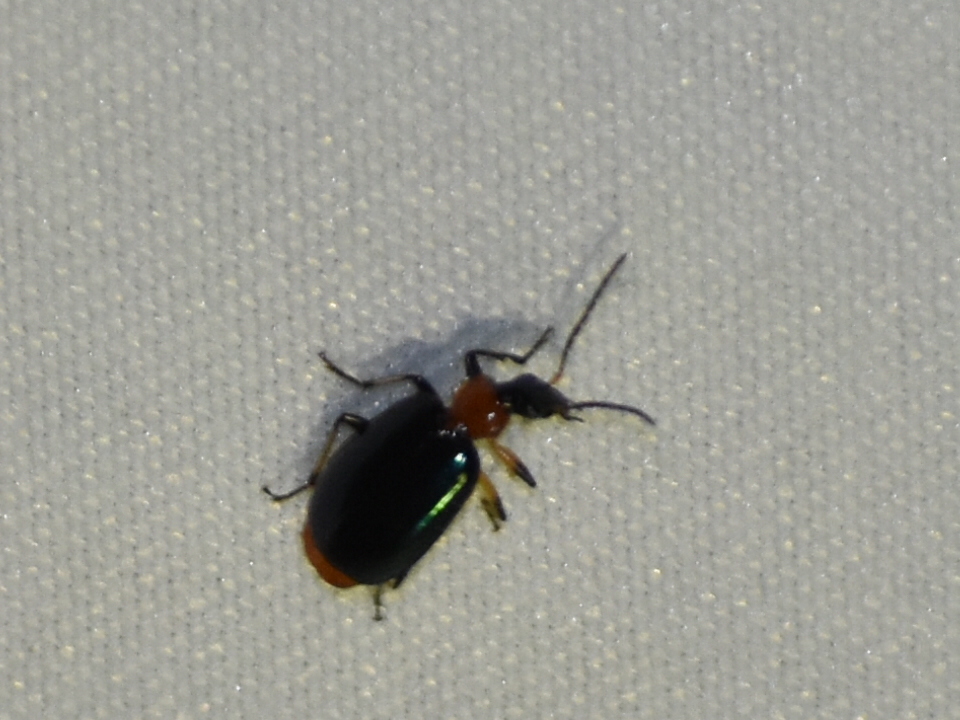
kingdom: Animalia
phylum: Arthropoda
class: Insecta
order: Coleoptera
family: Carabidae
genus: Lebia
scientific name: Lebia viridipennis
